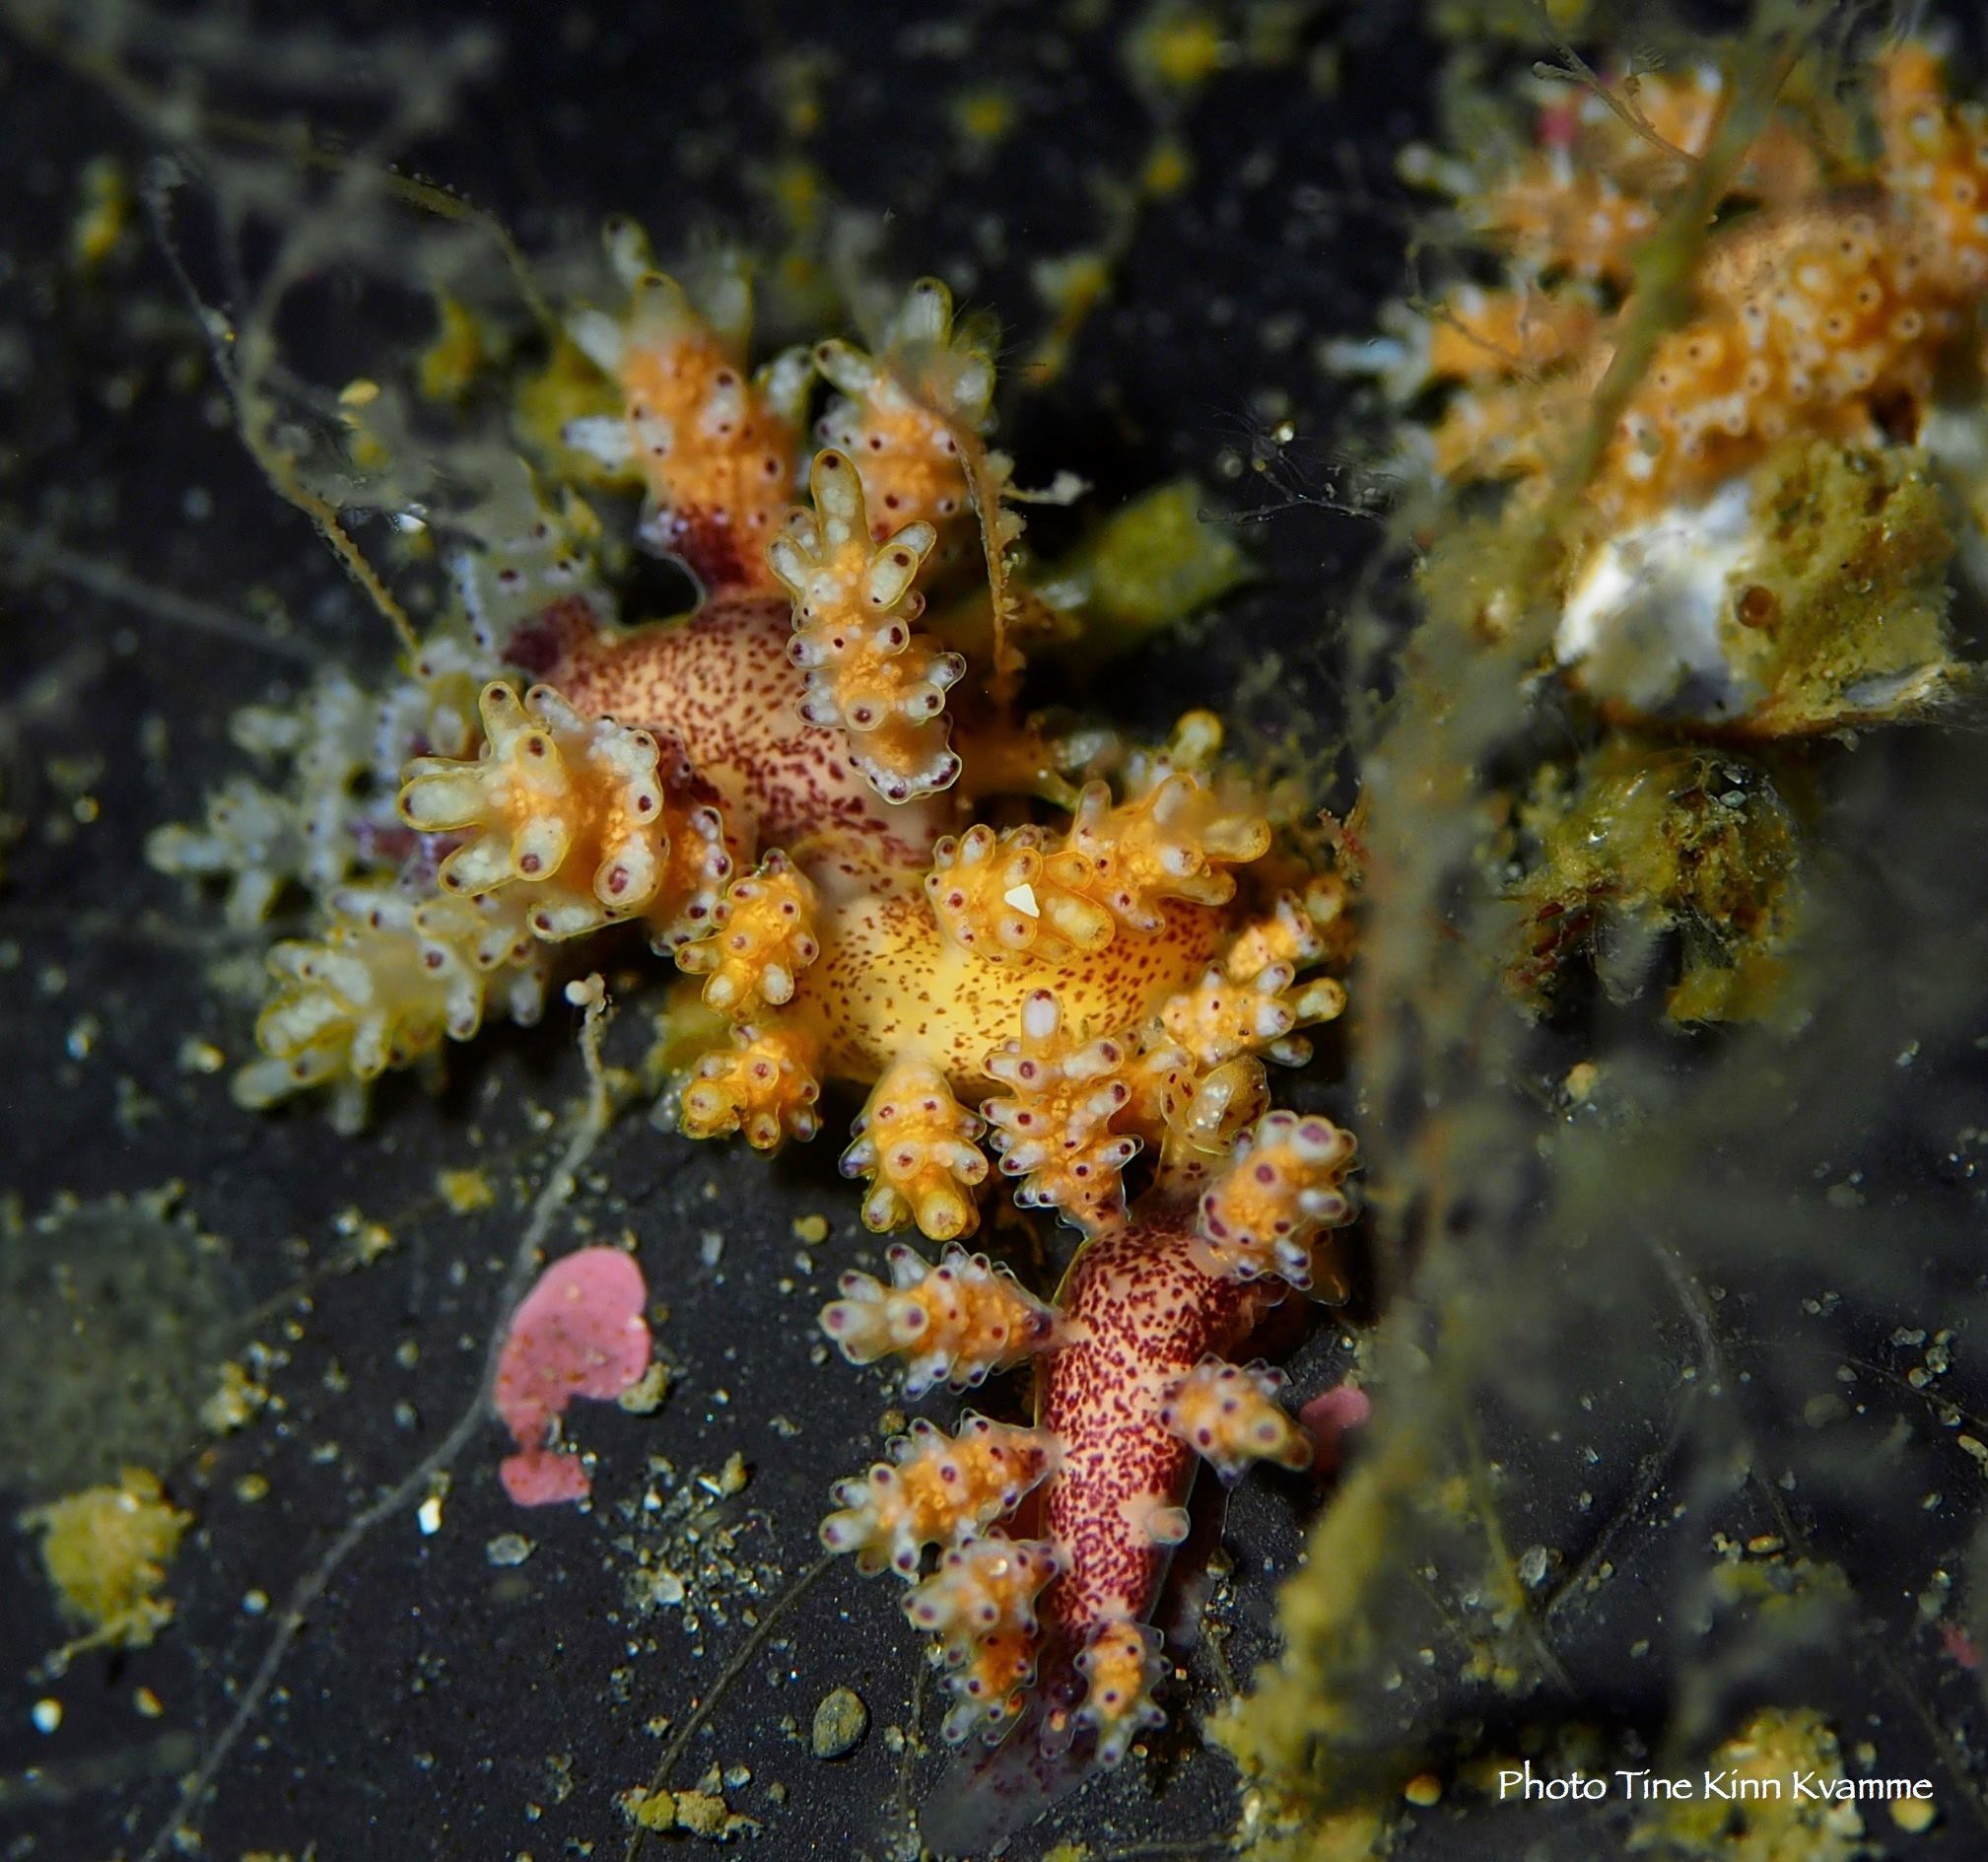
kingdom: Animalia
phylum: Mollusca
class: Gastropoda
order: Nudibranchia
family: Dotidae
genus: Doto
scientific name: Doto maculata
